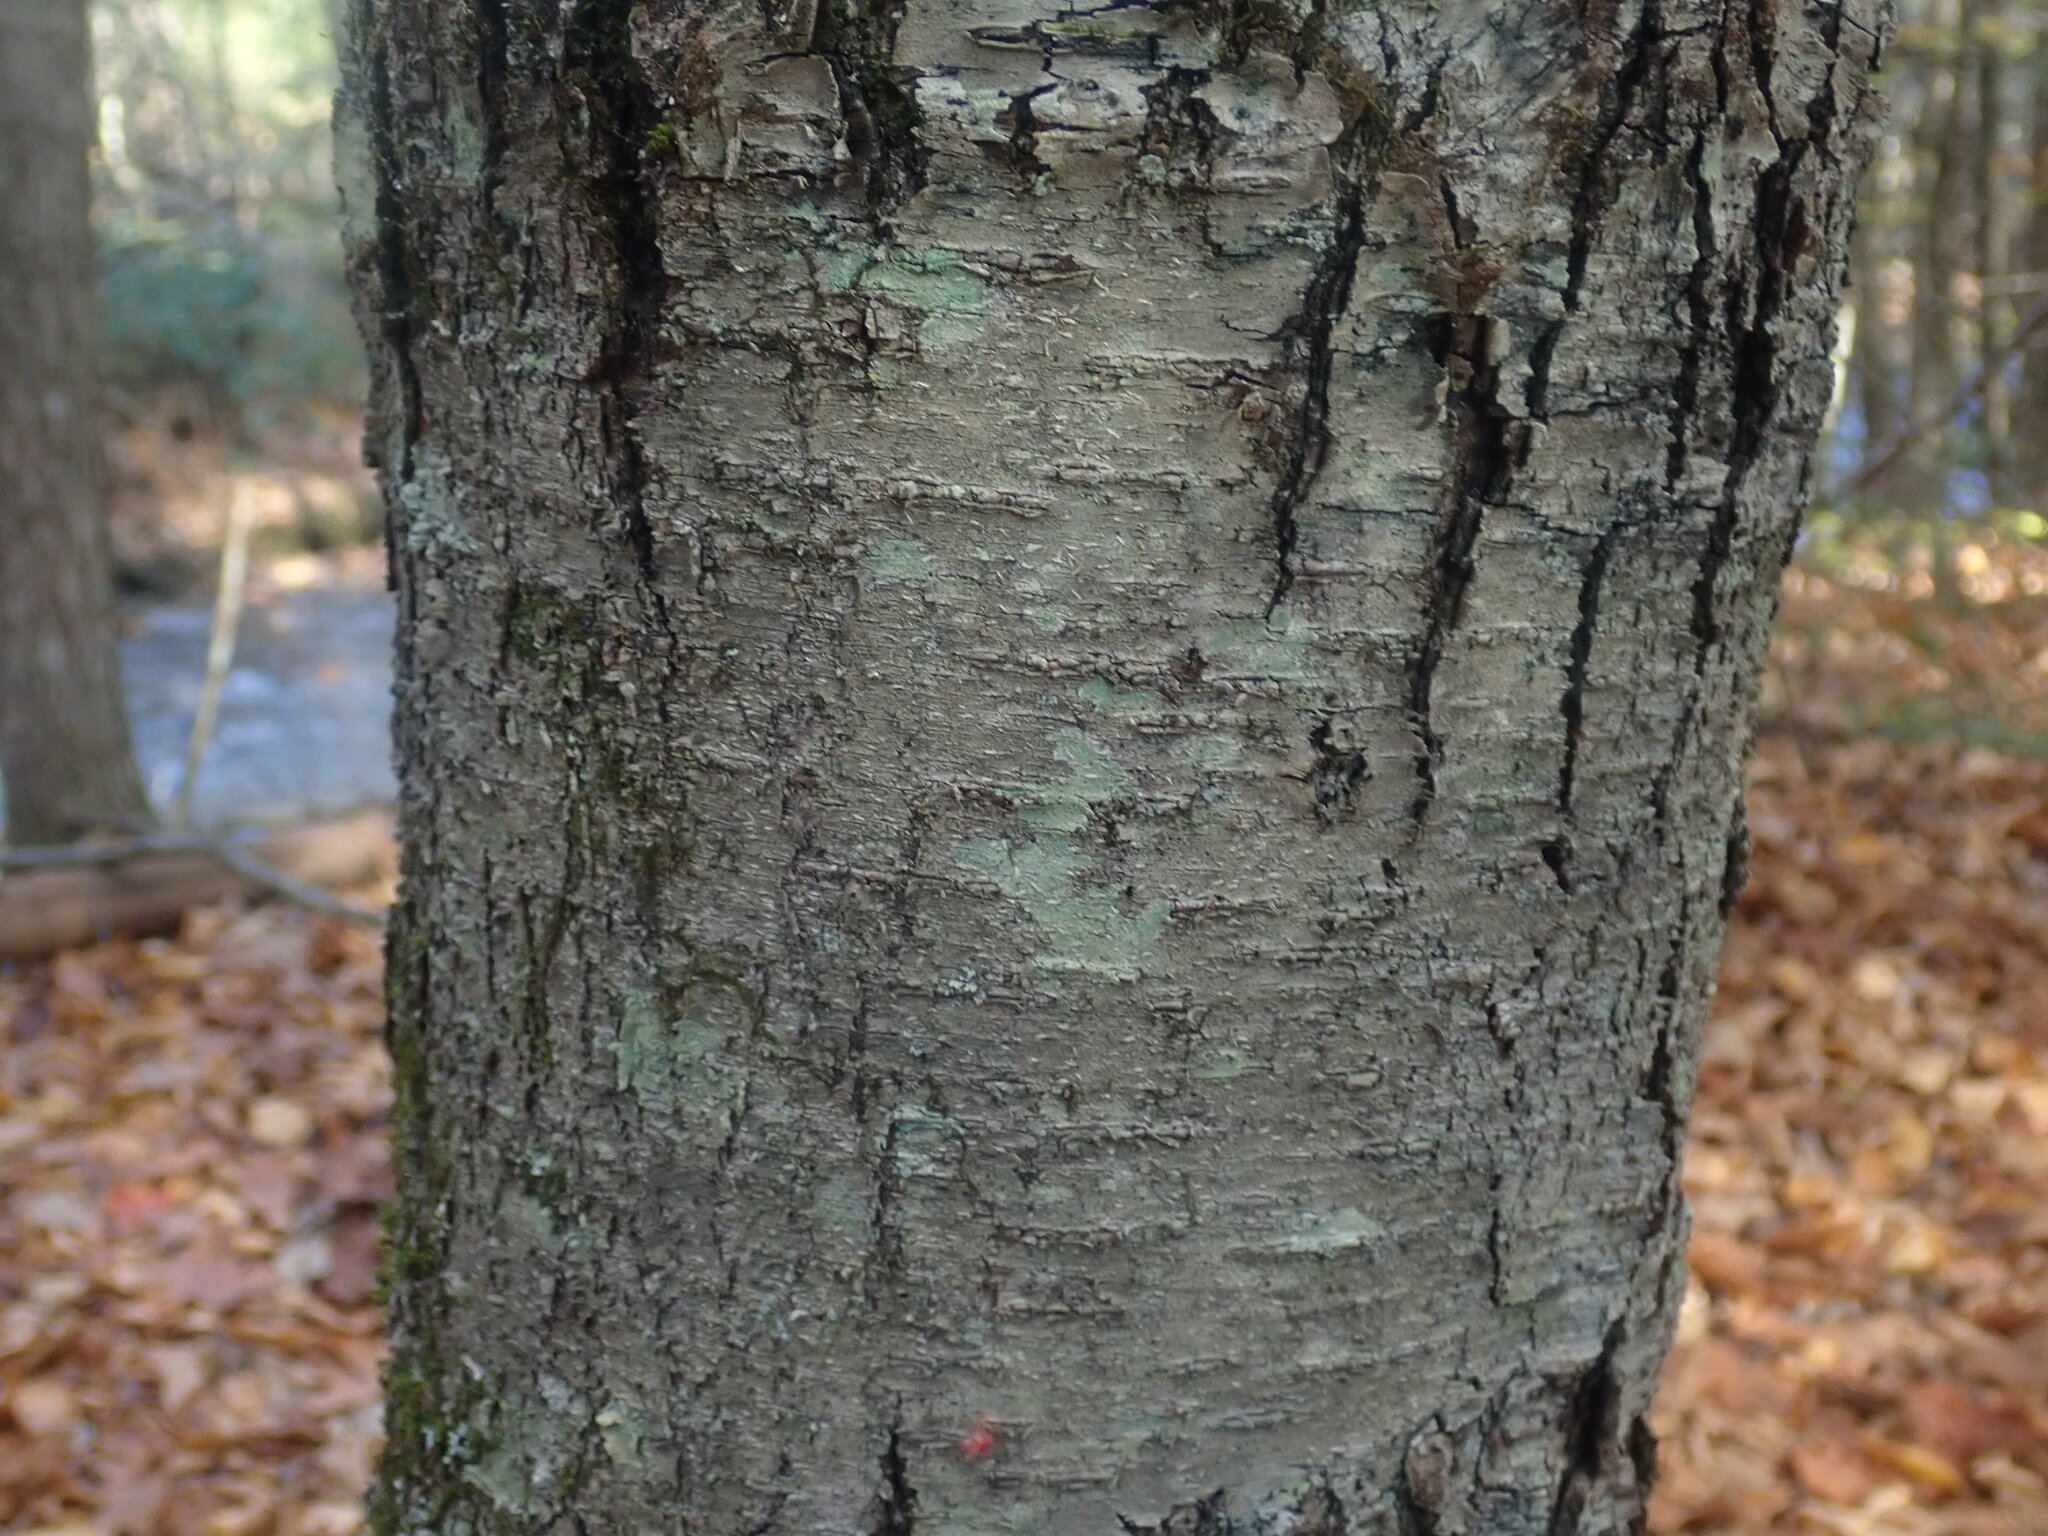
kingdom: Plantae
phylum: Tracheophyta
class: Magnoliopsida
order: Fagales
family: Betulaceae
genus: Betula
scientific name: Betula lenta
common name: Black birch
